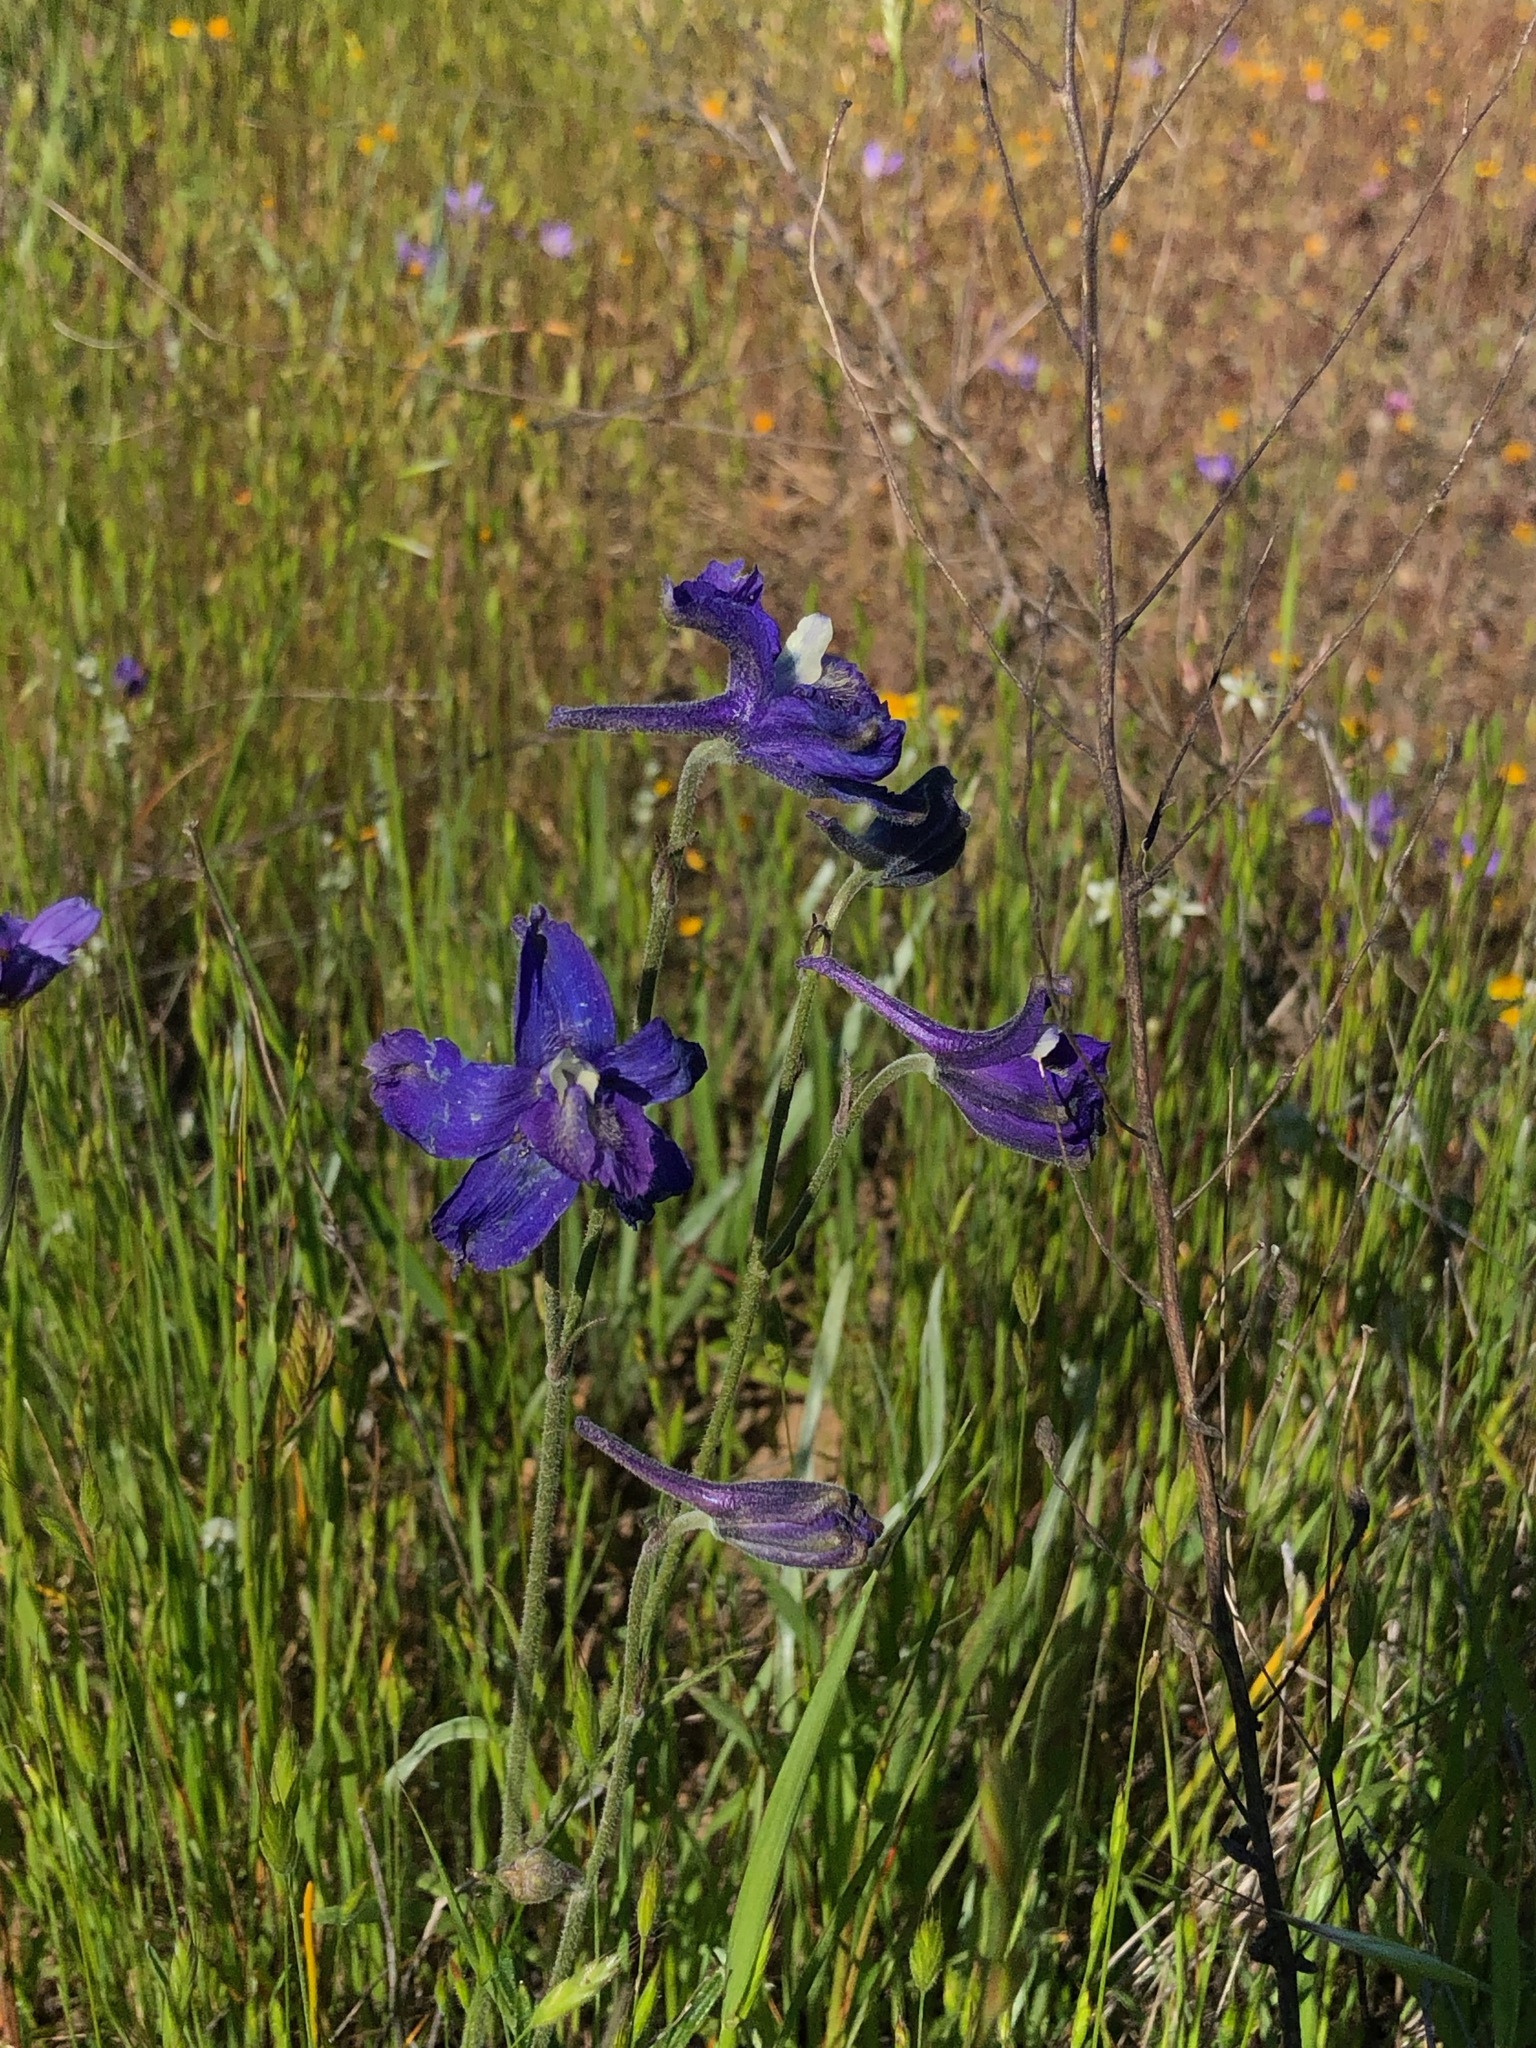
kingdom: Plantae
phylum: Tracheophyta
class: Magnoliopsida
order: Ranunculales
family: Ranunculaceae
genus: Delphinium
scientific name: Delphinium variegatum
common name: Royal larkspur
